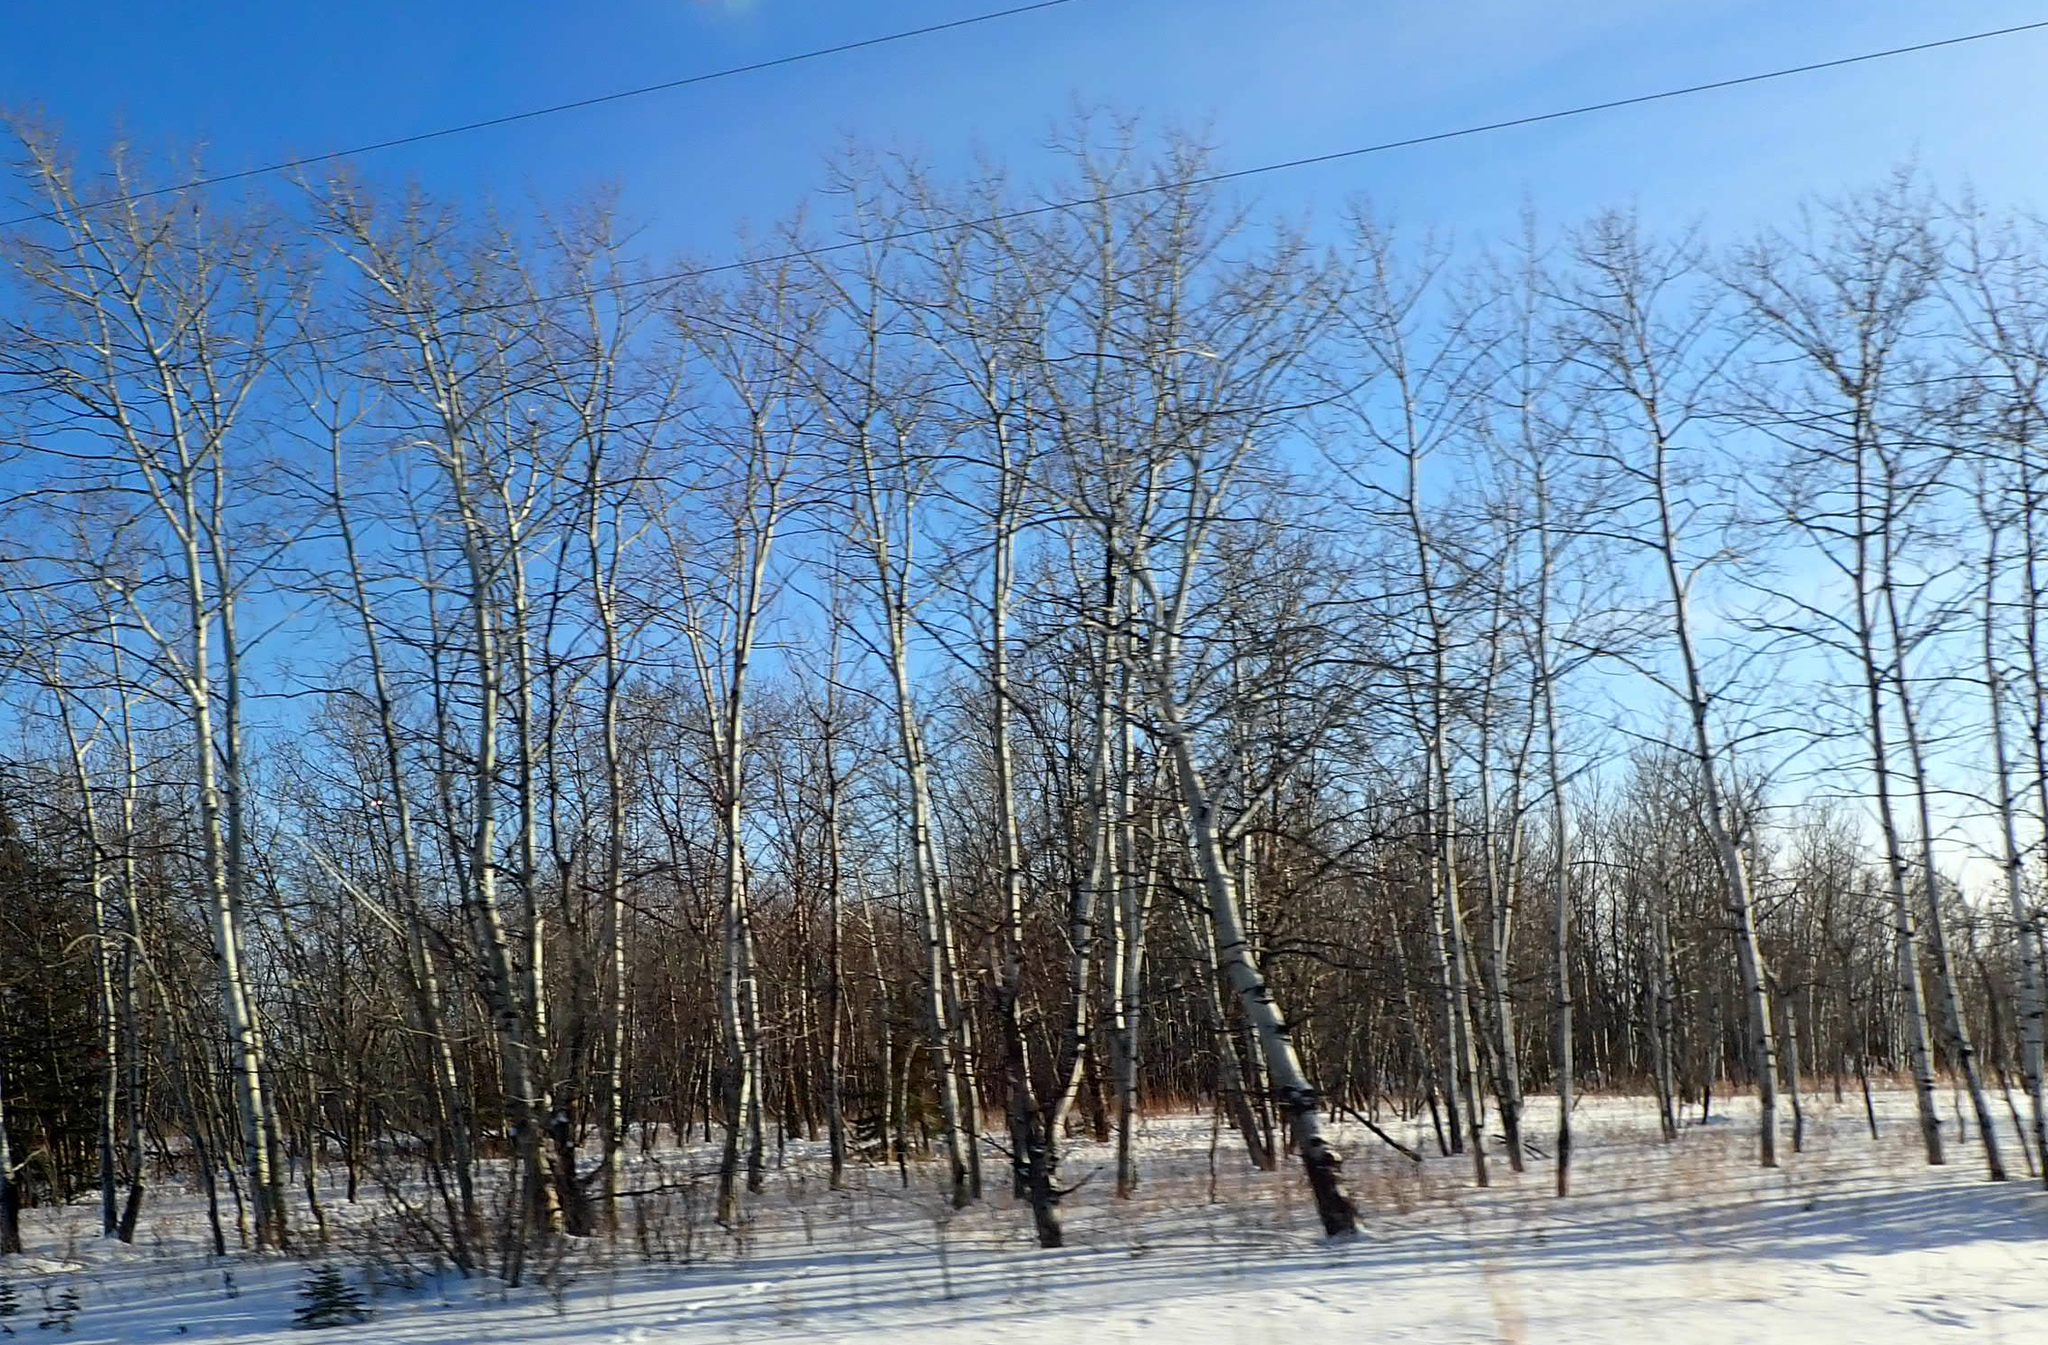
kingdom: Plantae
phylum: Tracheophyta
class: Magnoliopsida
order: Malpighiales
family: Salicaceae
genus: Populus
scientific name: Populus tremuloides
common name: Quaking aspen
